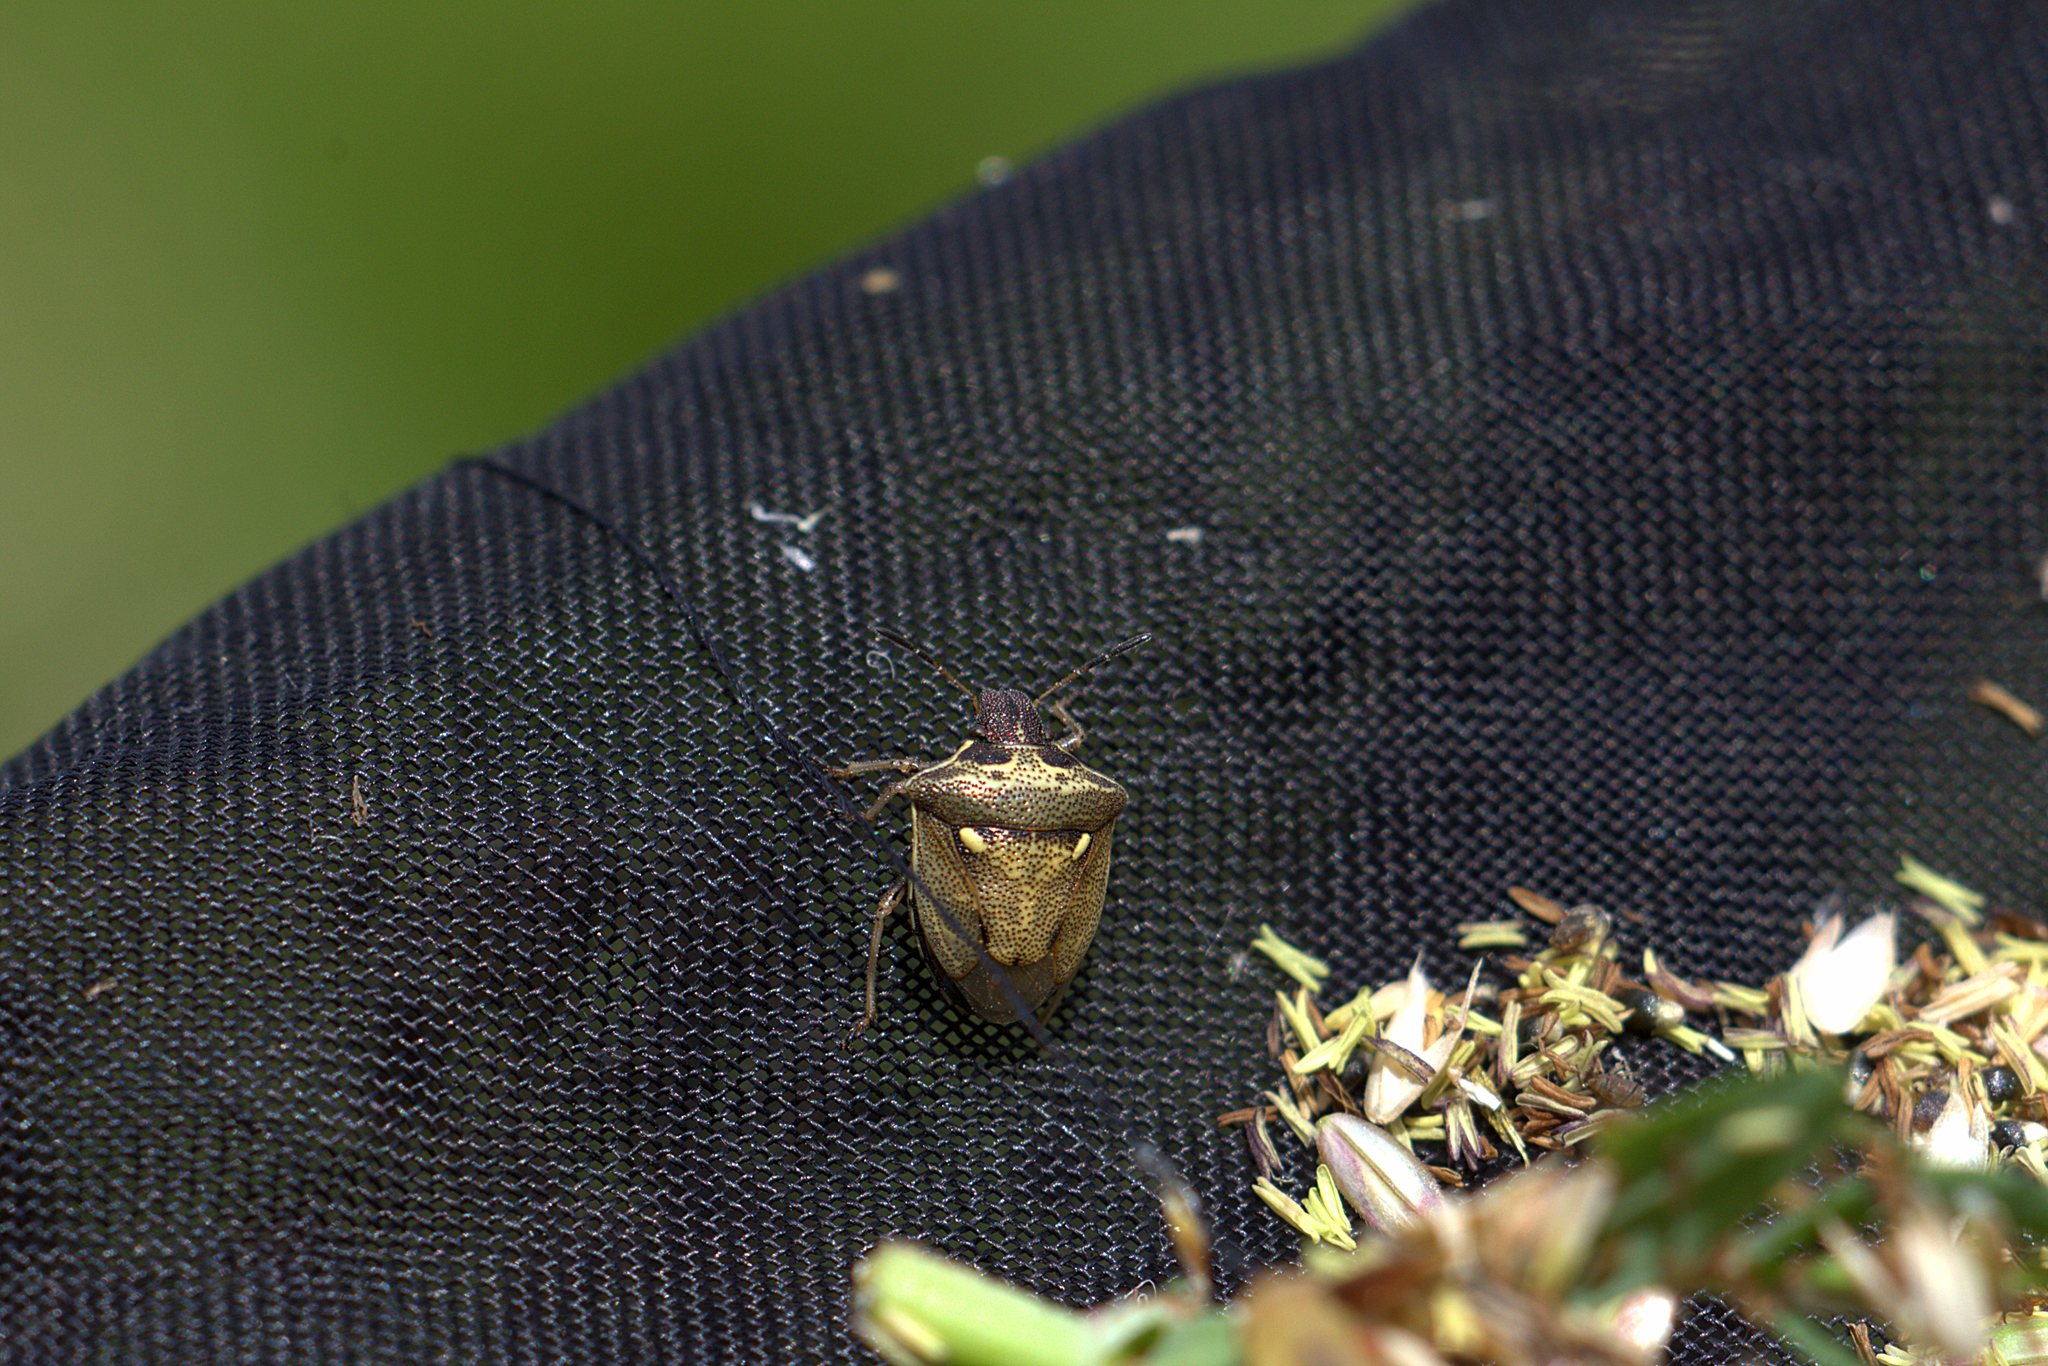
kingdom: Animalia
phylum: Arthropoda
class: Insecta
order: Hemiptera
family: Pentatomidae
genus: Eysarcoris
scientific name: Eysarcoris aeneus
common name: New forest shieldbug
